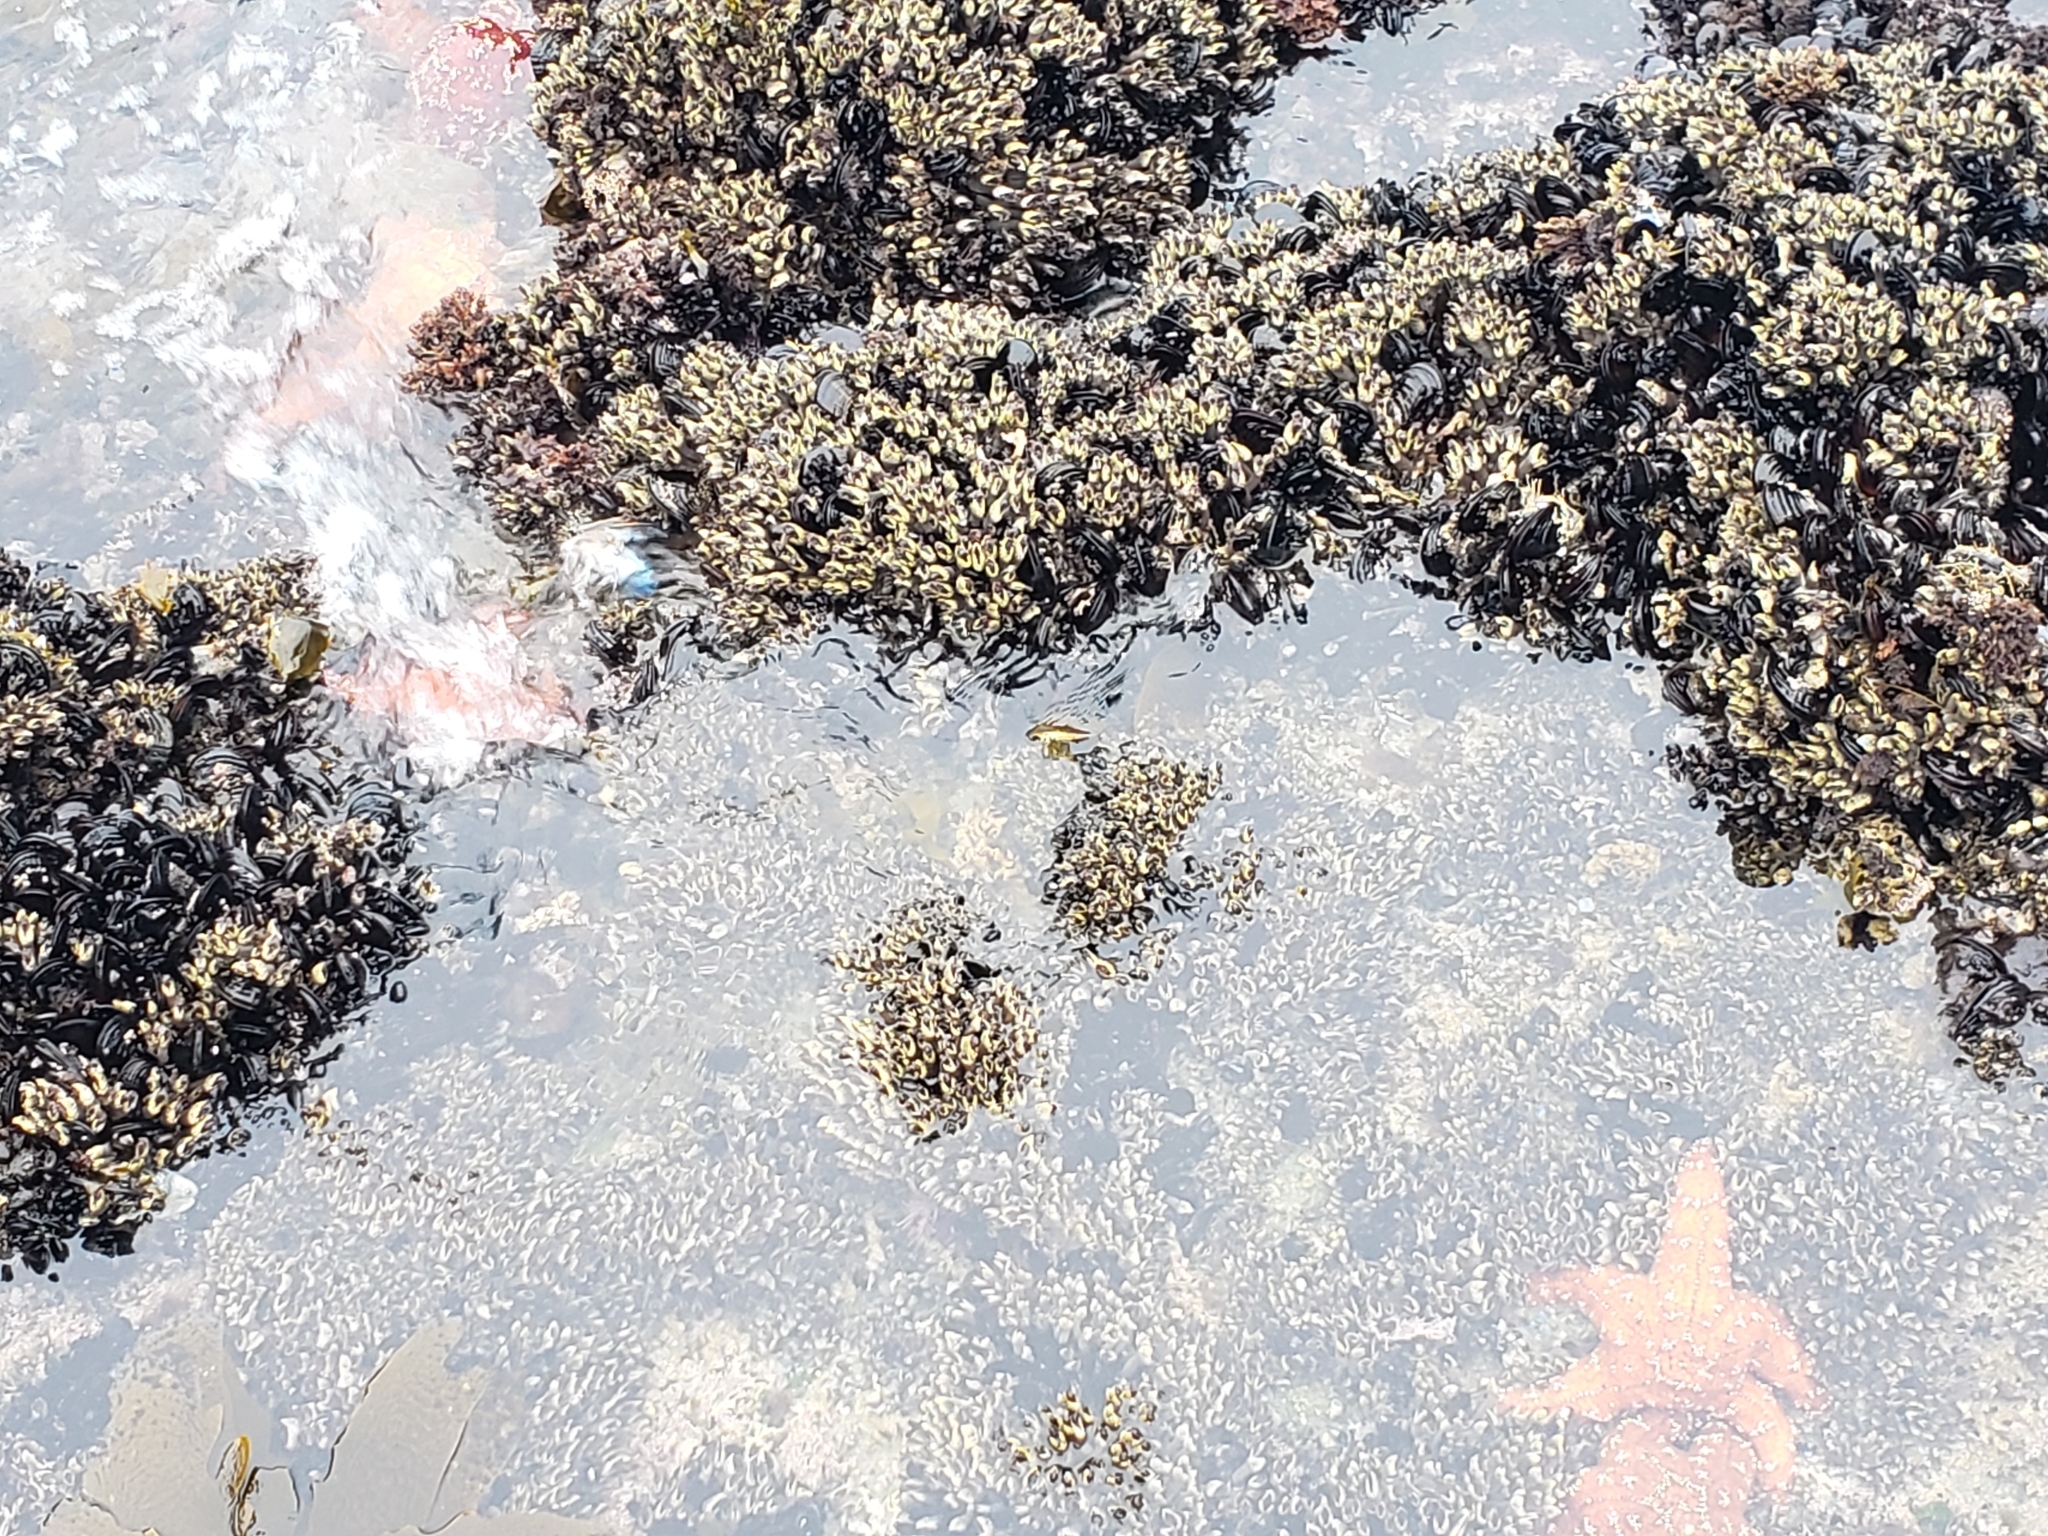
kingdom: Animalia
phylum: Echinodermata
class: Asteroidea
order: Forcipulatida
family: Asteriidae
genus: Pisaster
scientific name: Pisaster ochraceus
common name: Ochre stars
